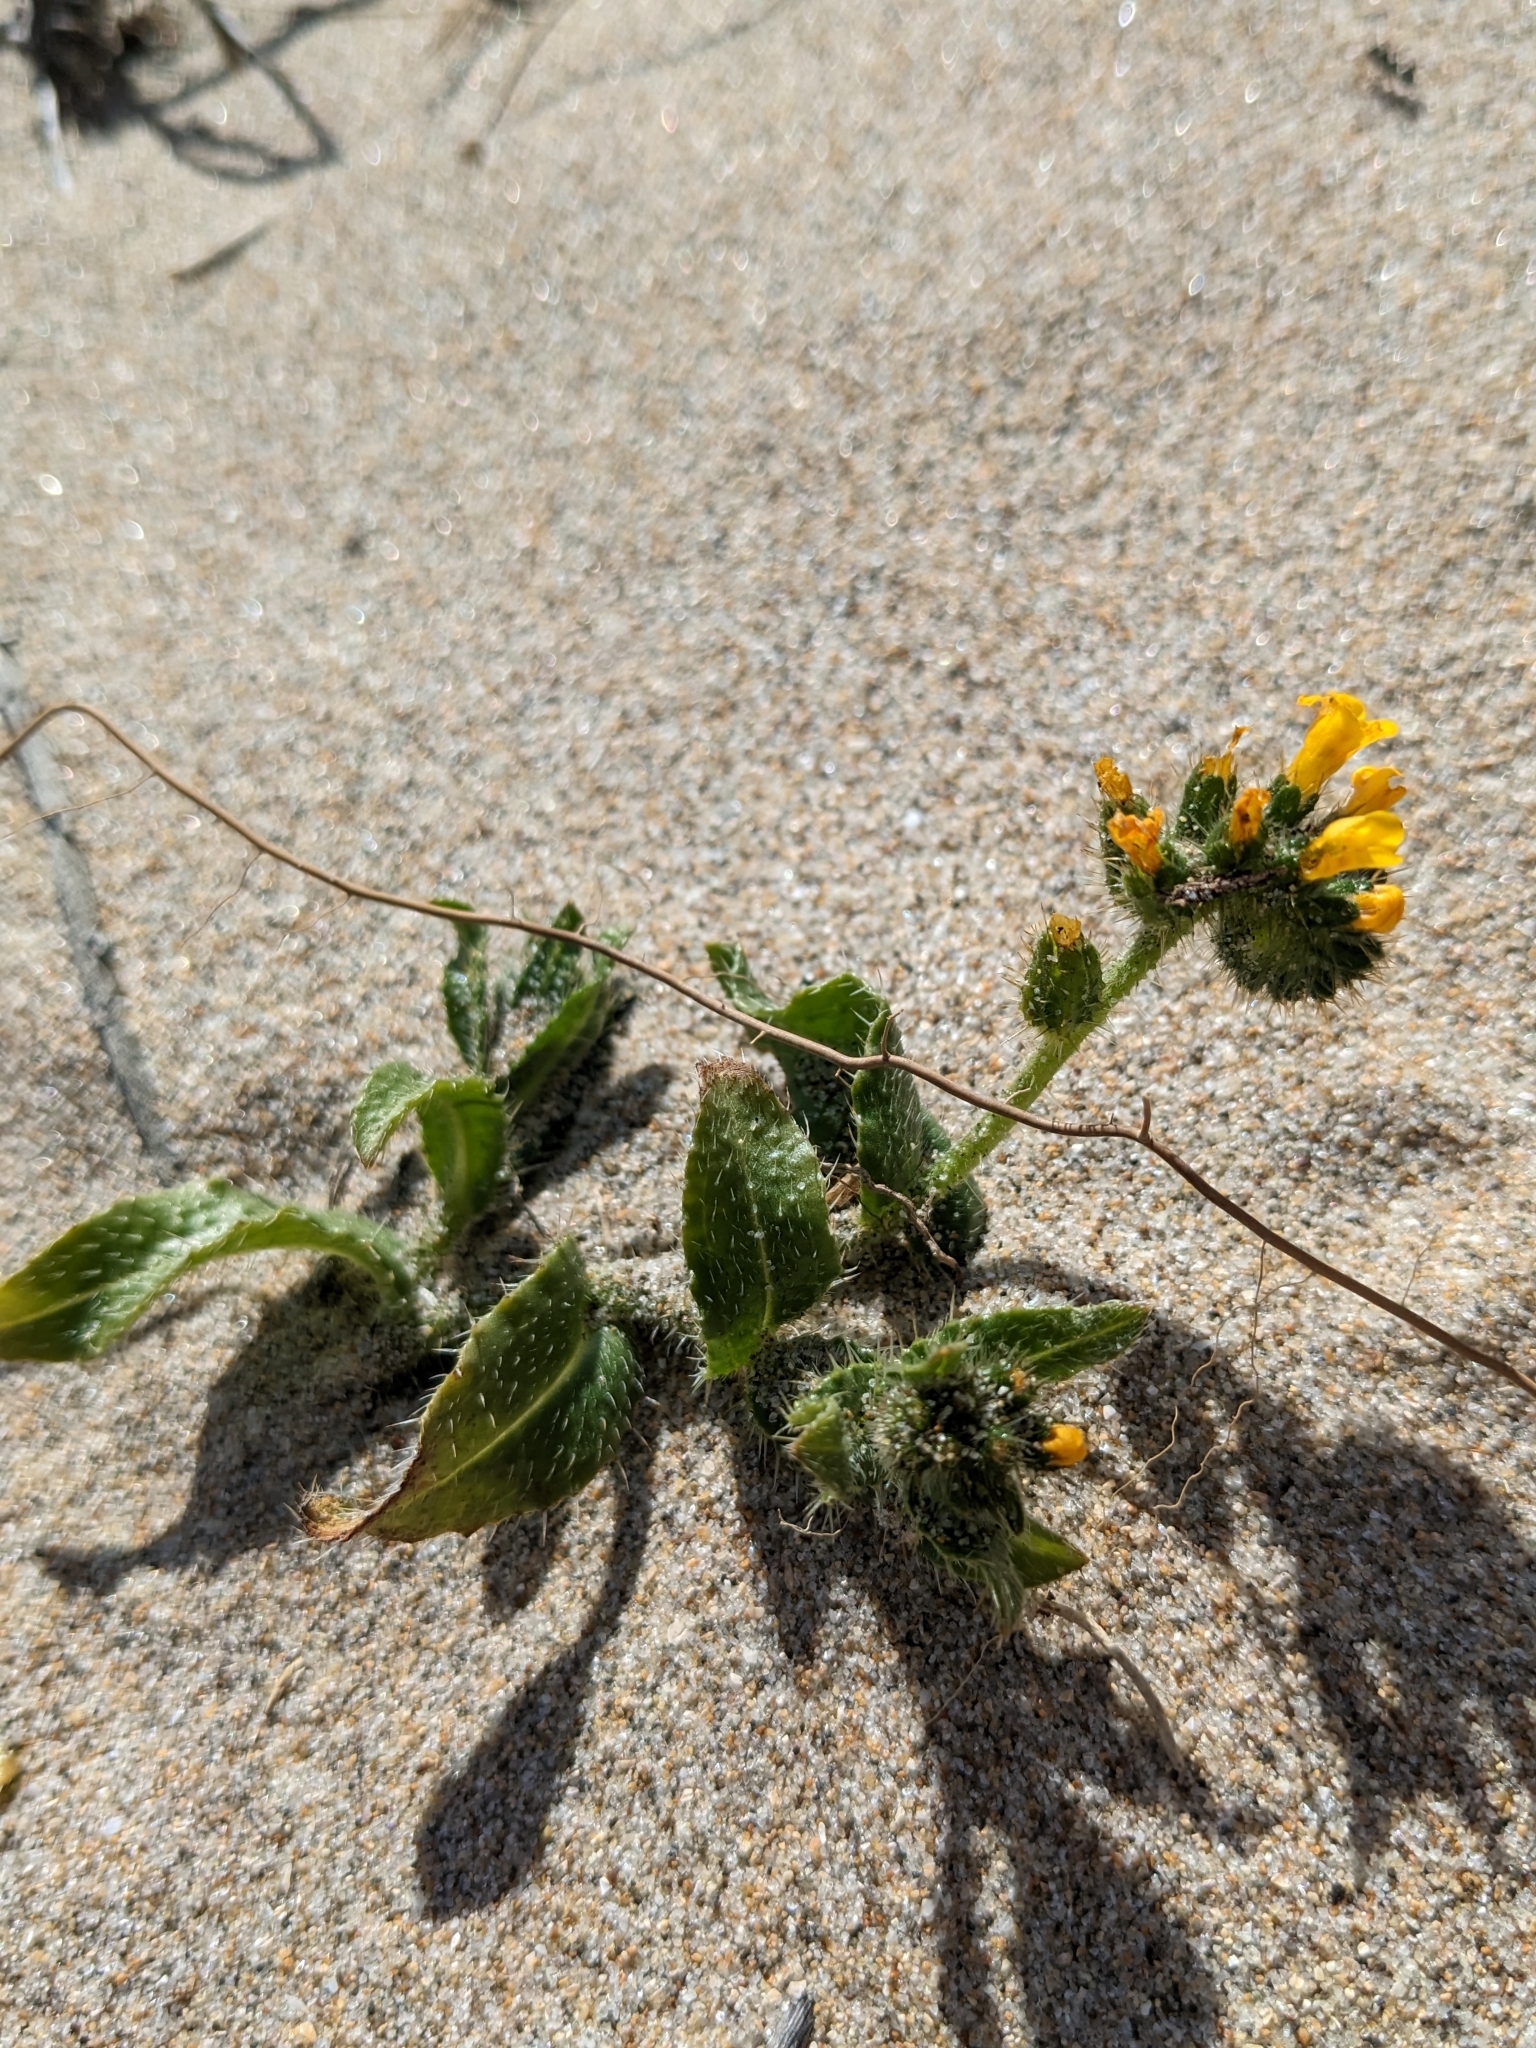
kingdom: Plantae
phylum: Tracheophyta
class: Magnoliopsida
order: Boraginales
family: Boraginaceae
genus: Amsinckia
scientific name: Amsinckia spectabilis
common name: Seaside fiddleneck
